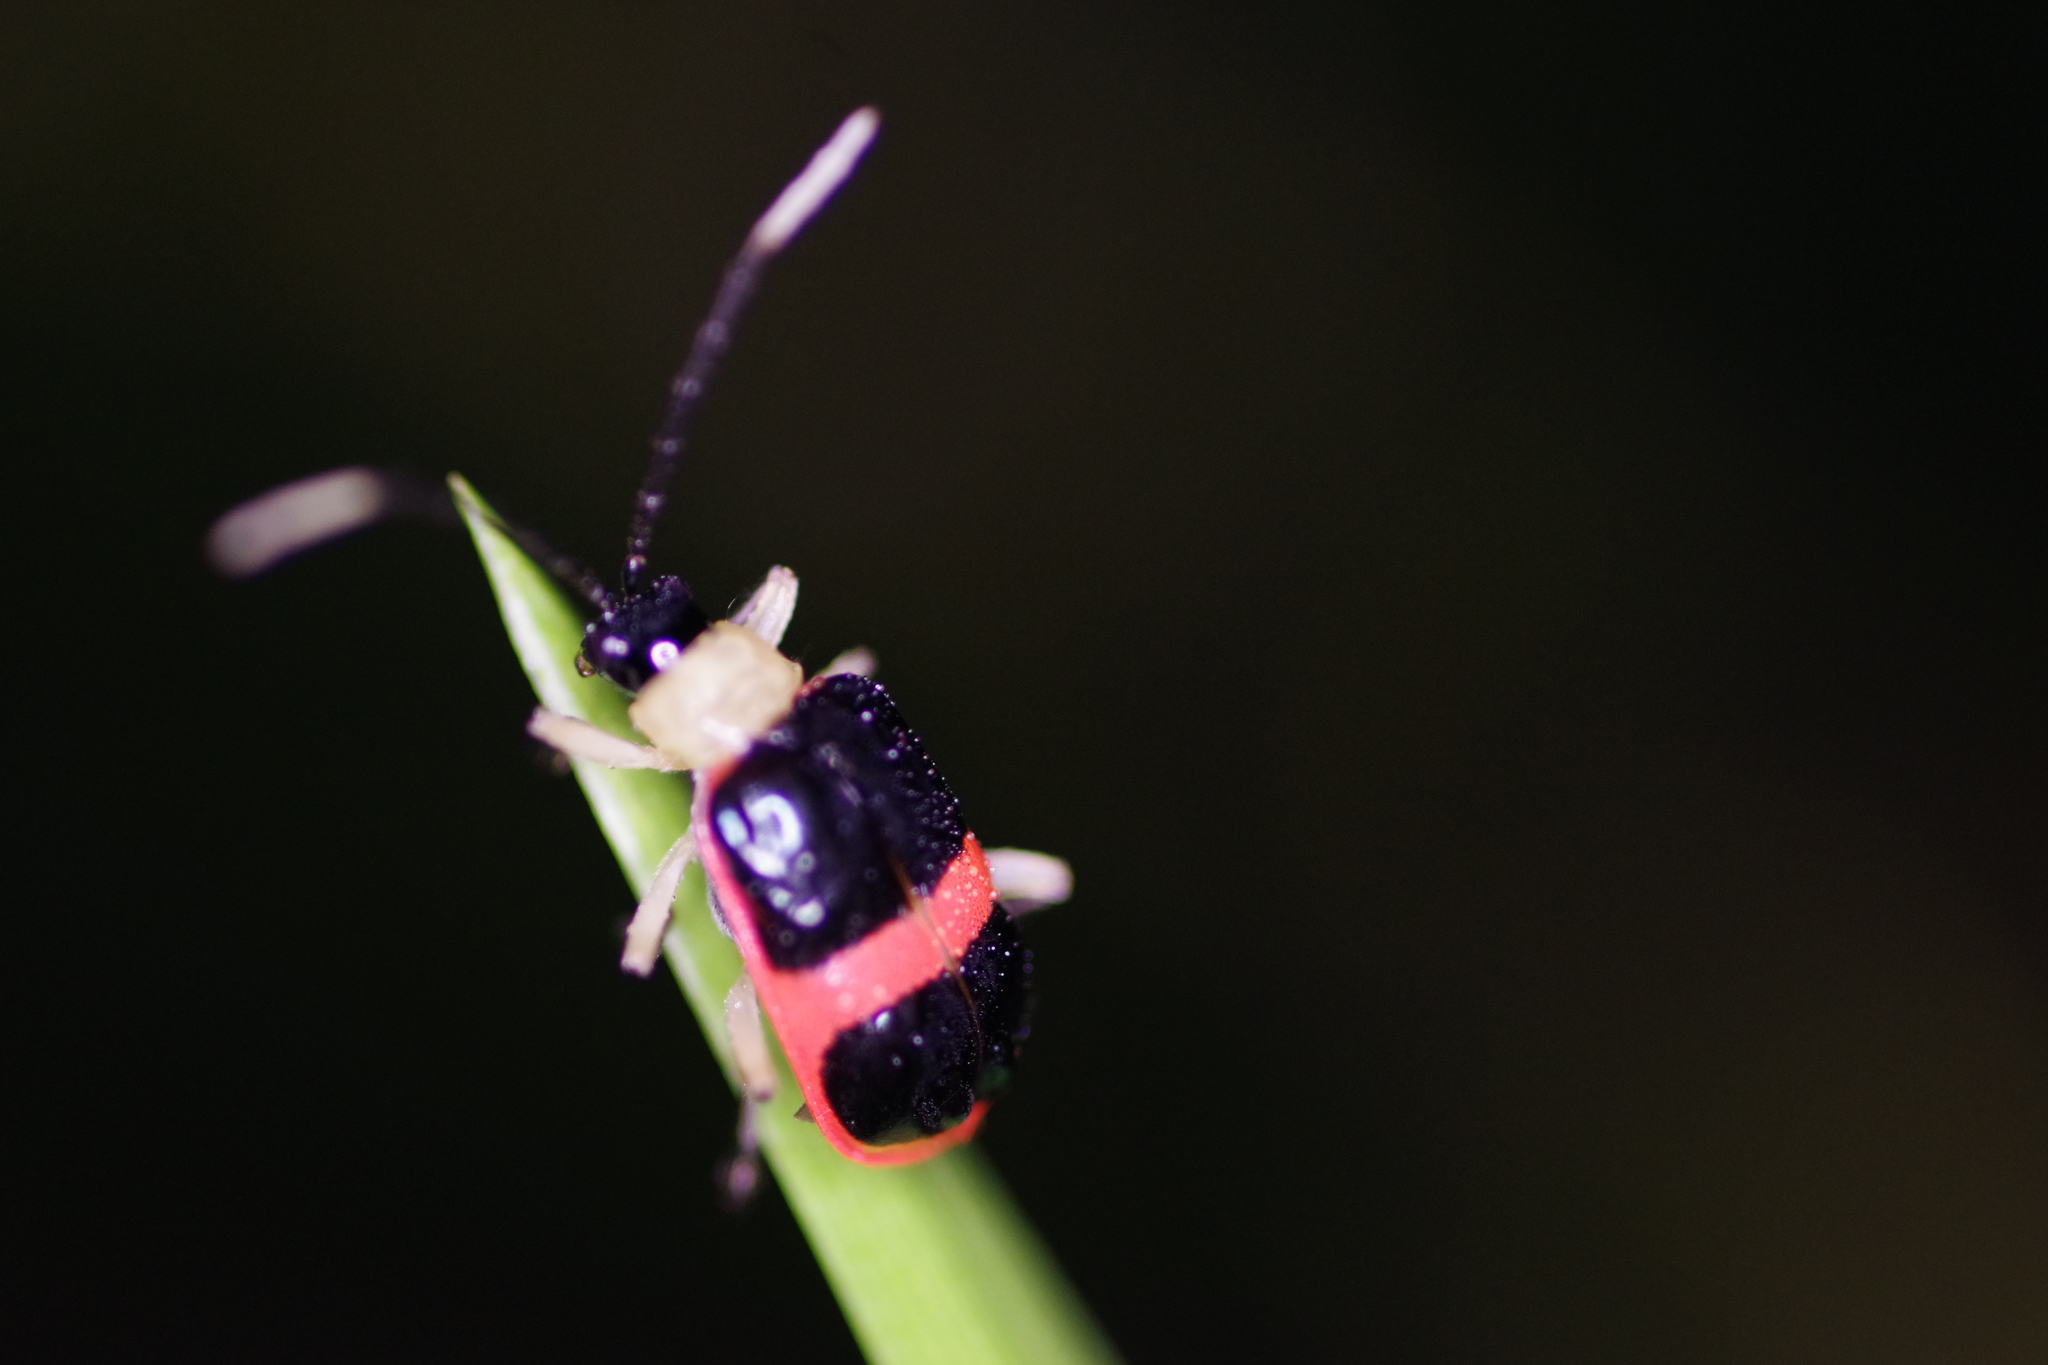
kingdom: Animalia
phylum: Arthropoda
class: Insecta
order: Coleoptera
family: Chrysomelidae
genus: Paratriarius
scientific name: Paratriarius
